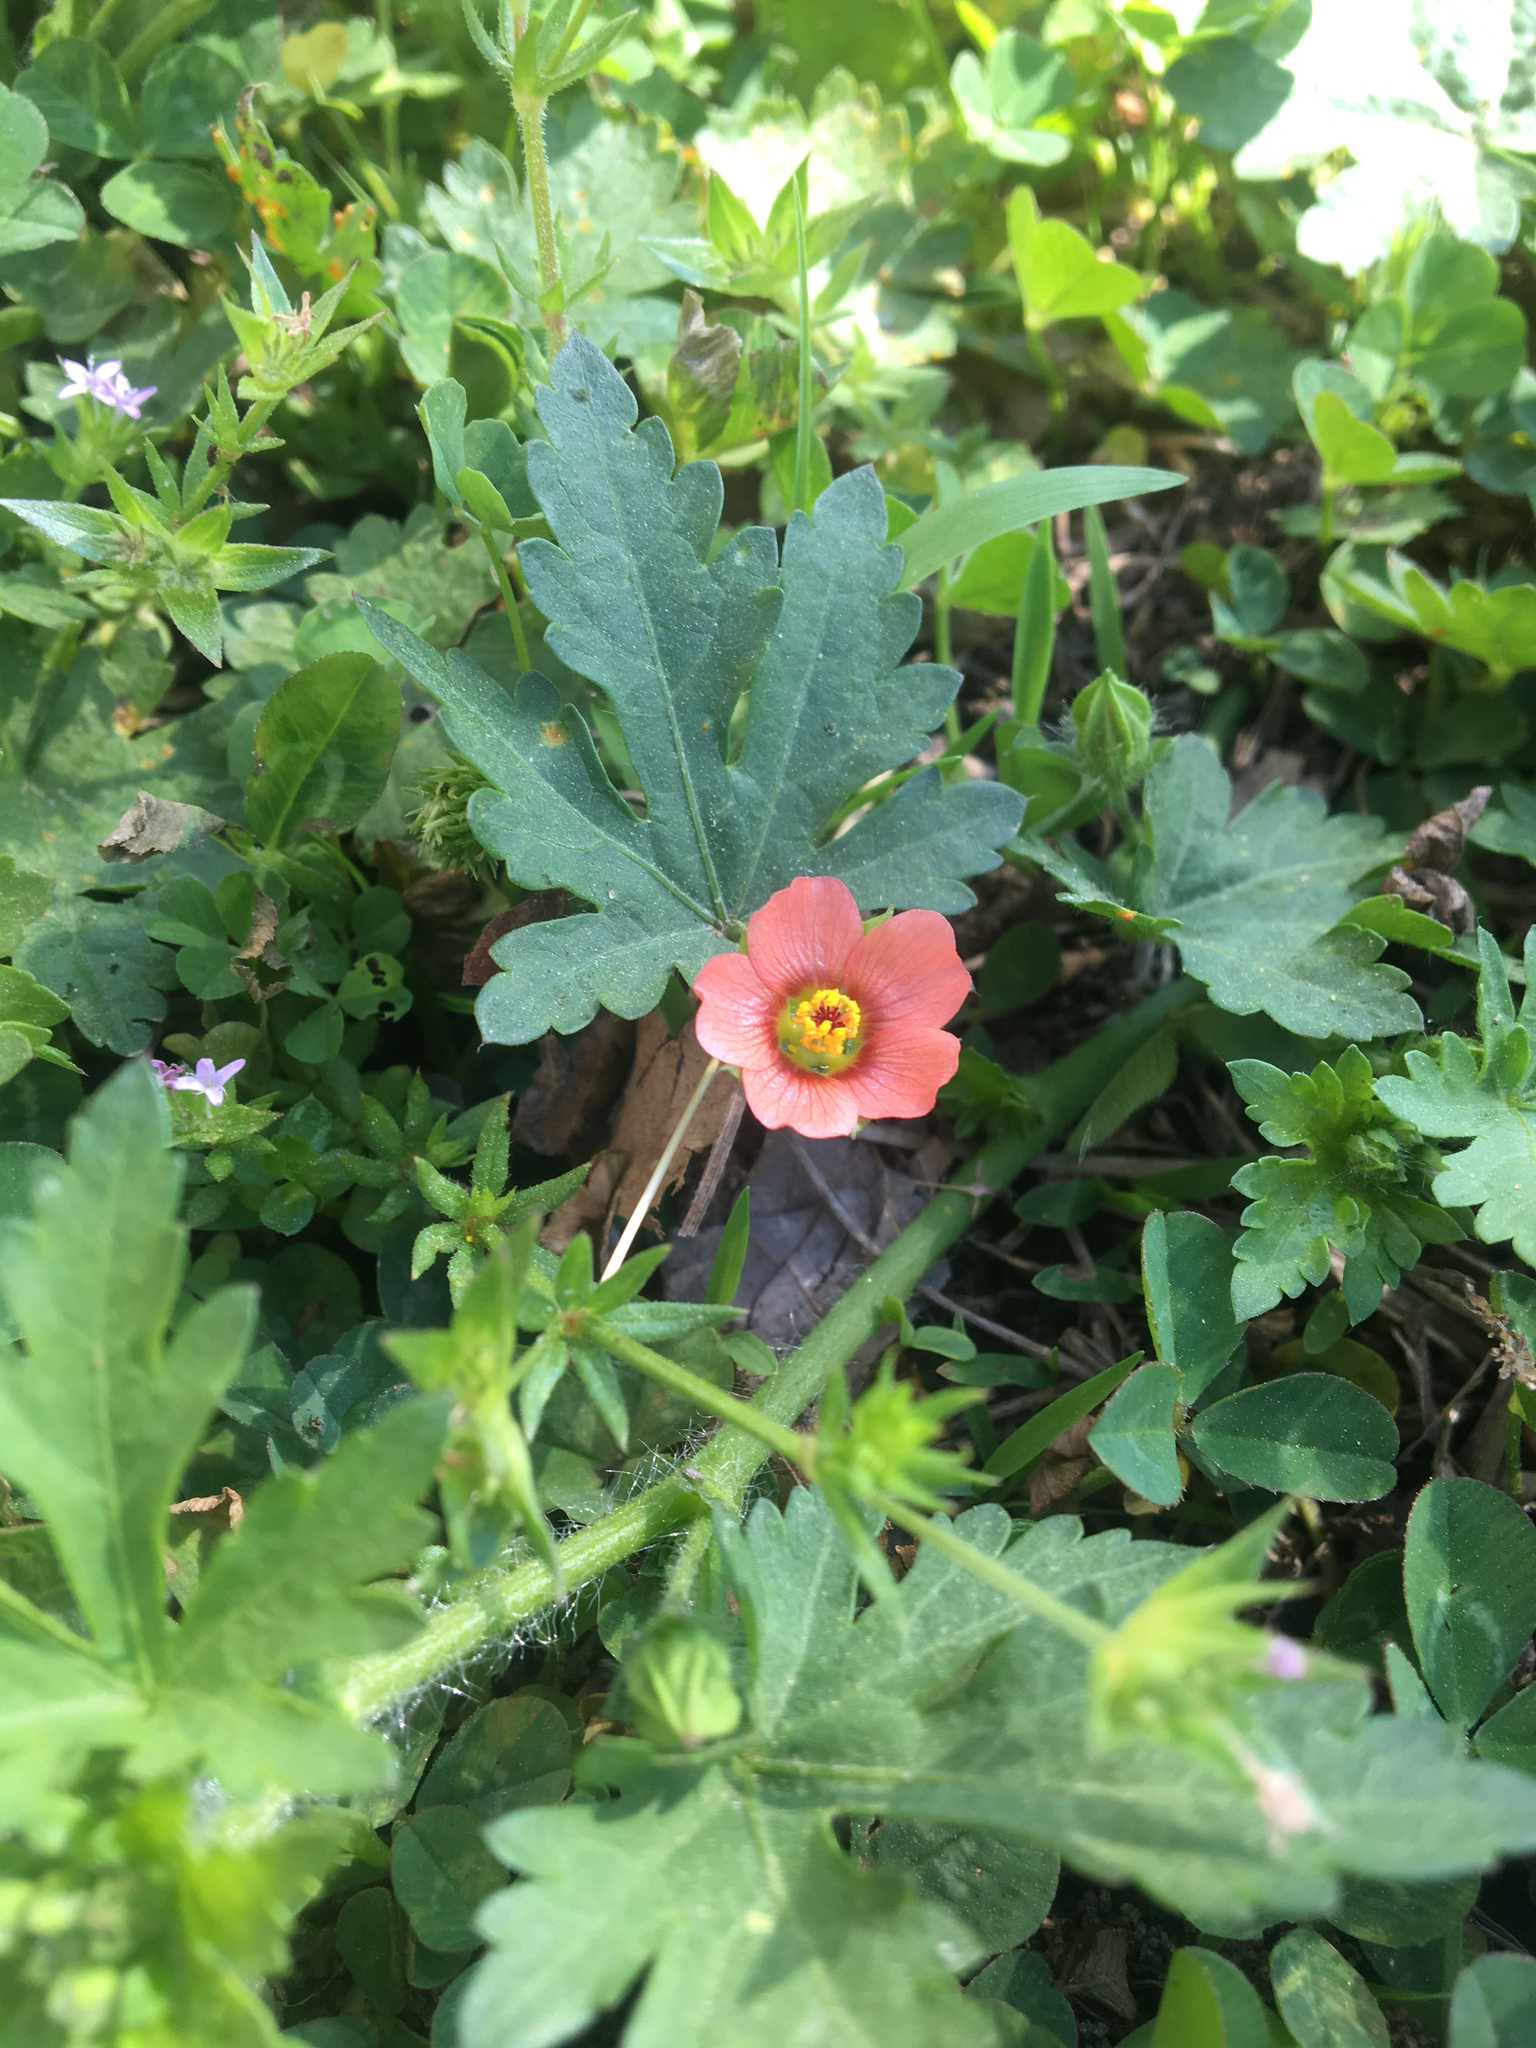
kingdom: Plantae
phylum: Tracheophyta
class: Magnoliopsida
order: Malvales
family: Malvaceae
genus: Modiola
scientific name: Modiola caroliniana
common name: Carolina bristlemallow
